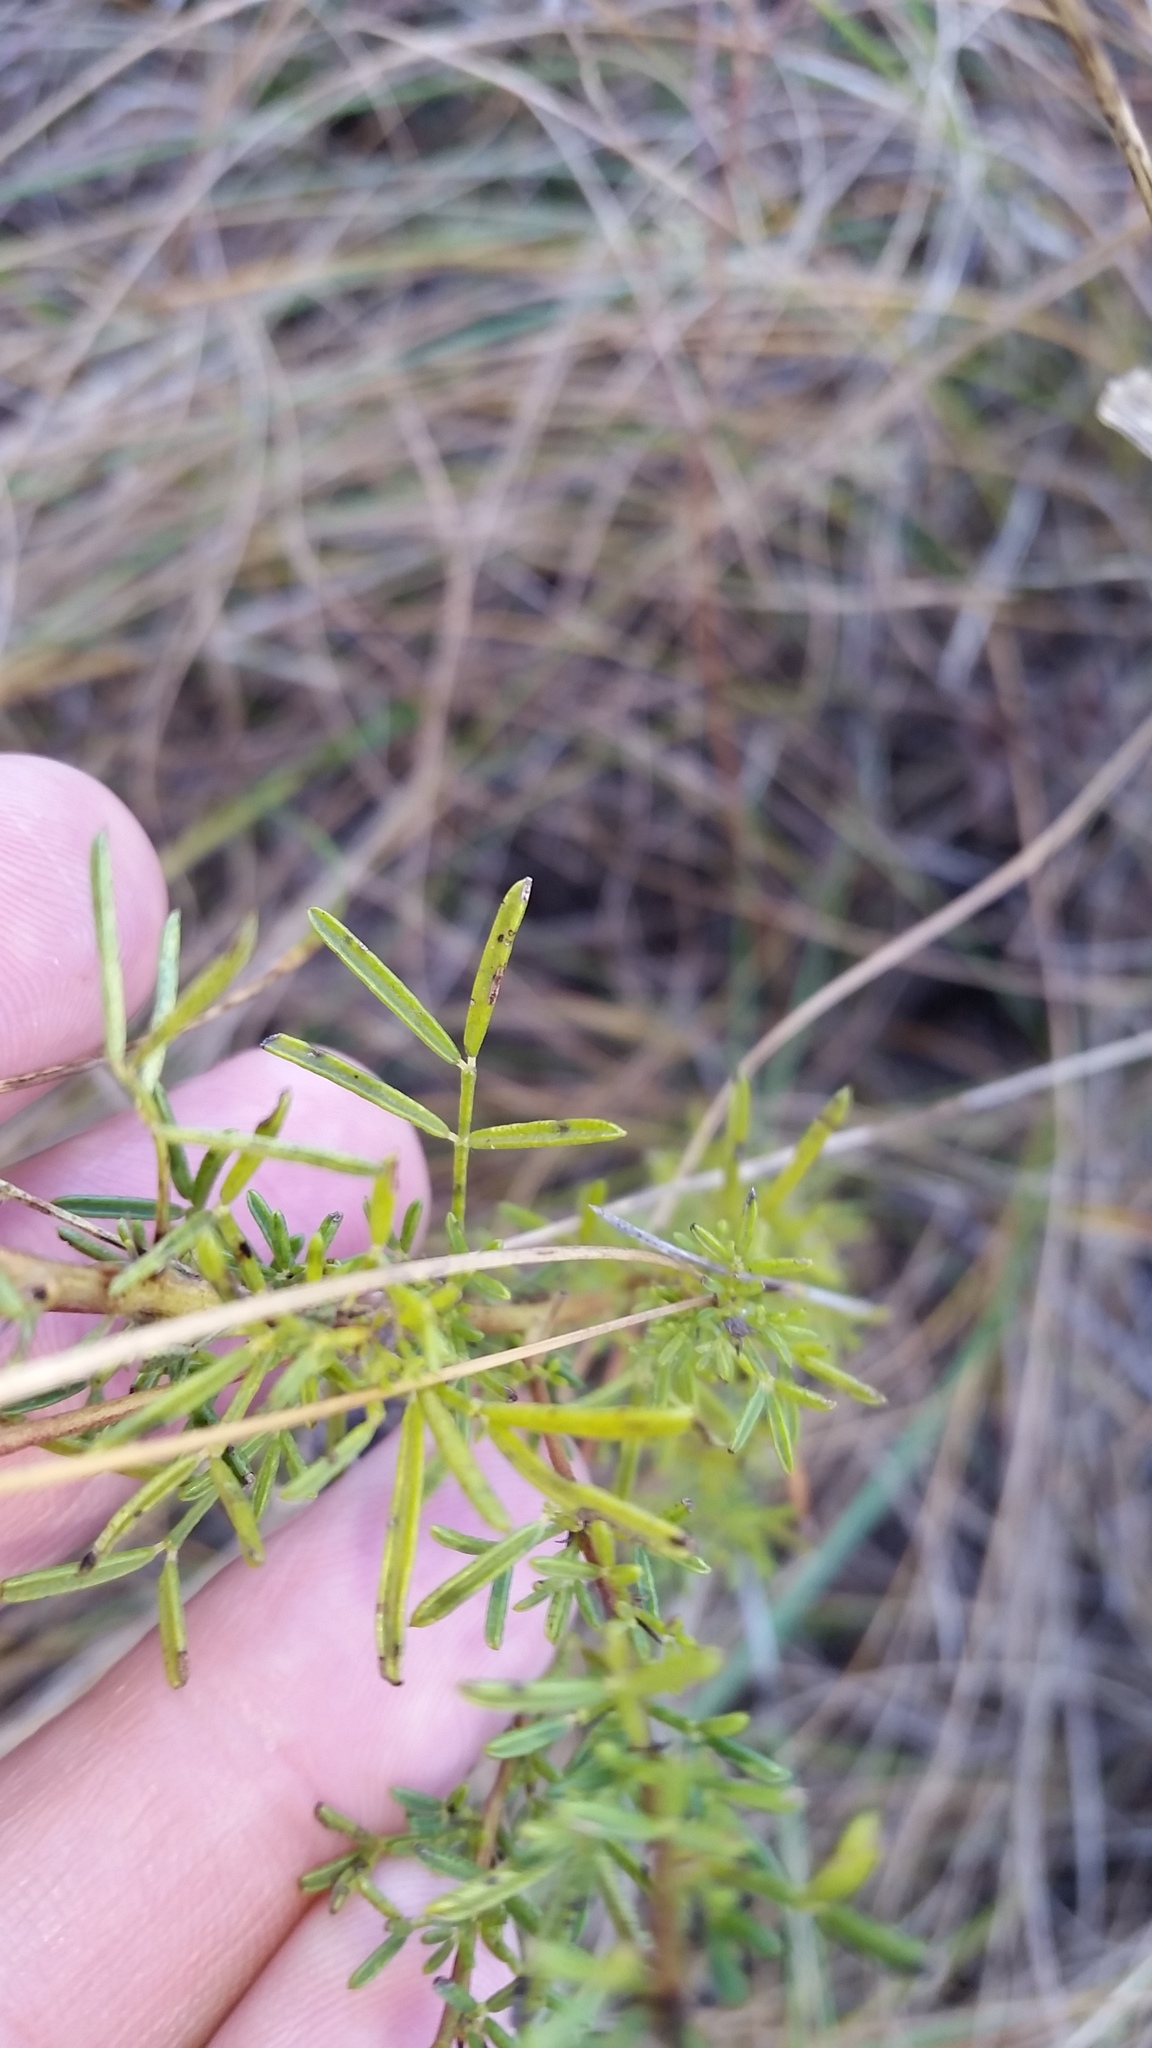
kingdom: Plantae
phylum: Tracheophyta
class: Magnoliopsida
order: Fabales
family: Fabaceae
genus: Dalea
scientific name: Dalea purpurea
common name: Purple prairie-clover
